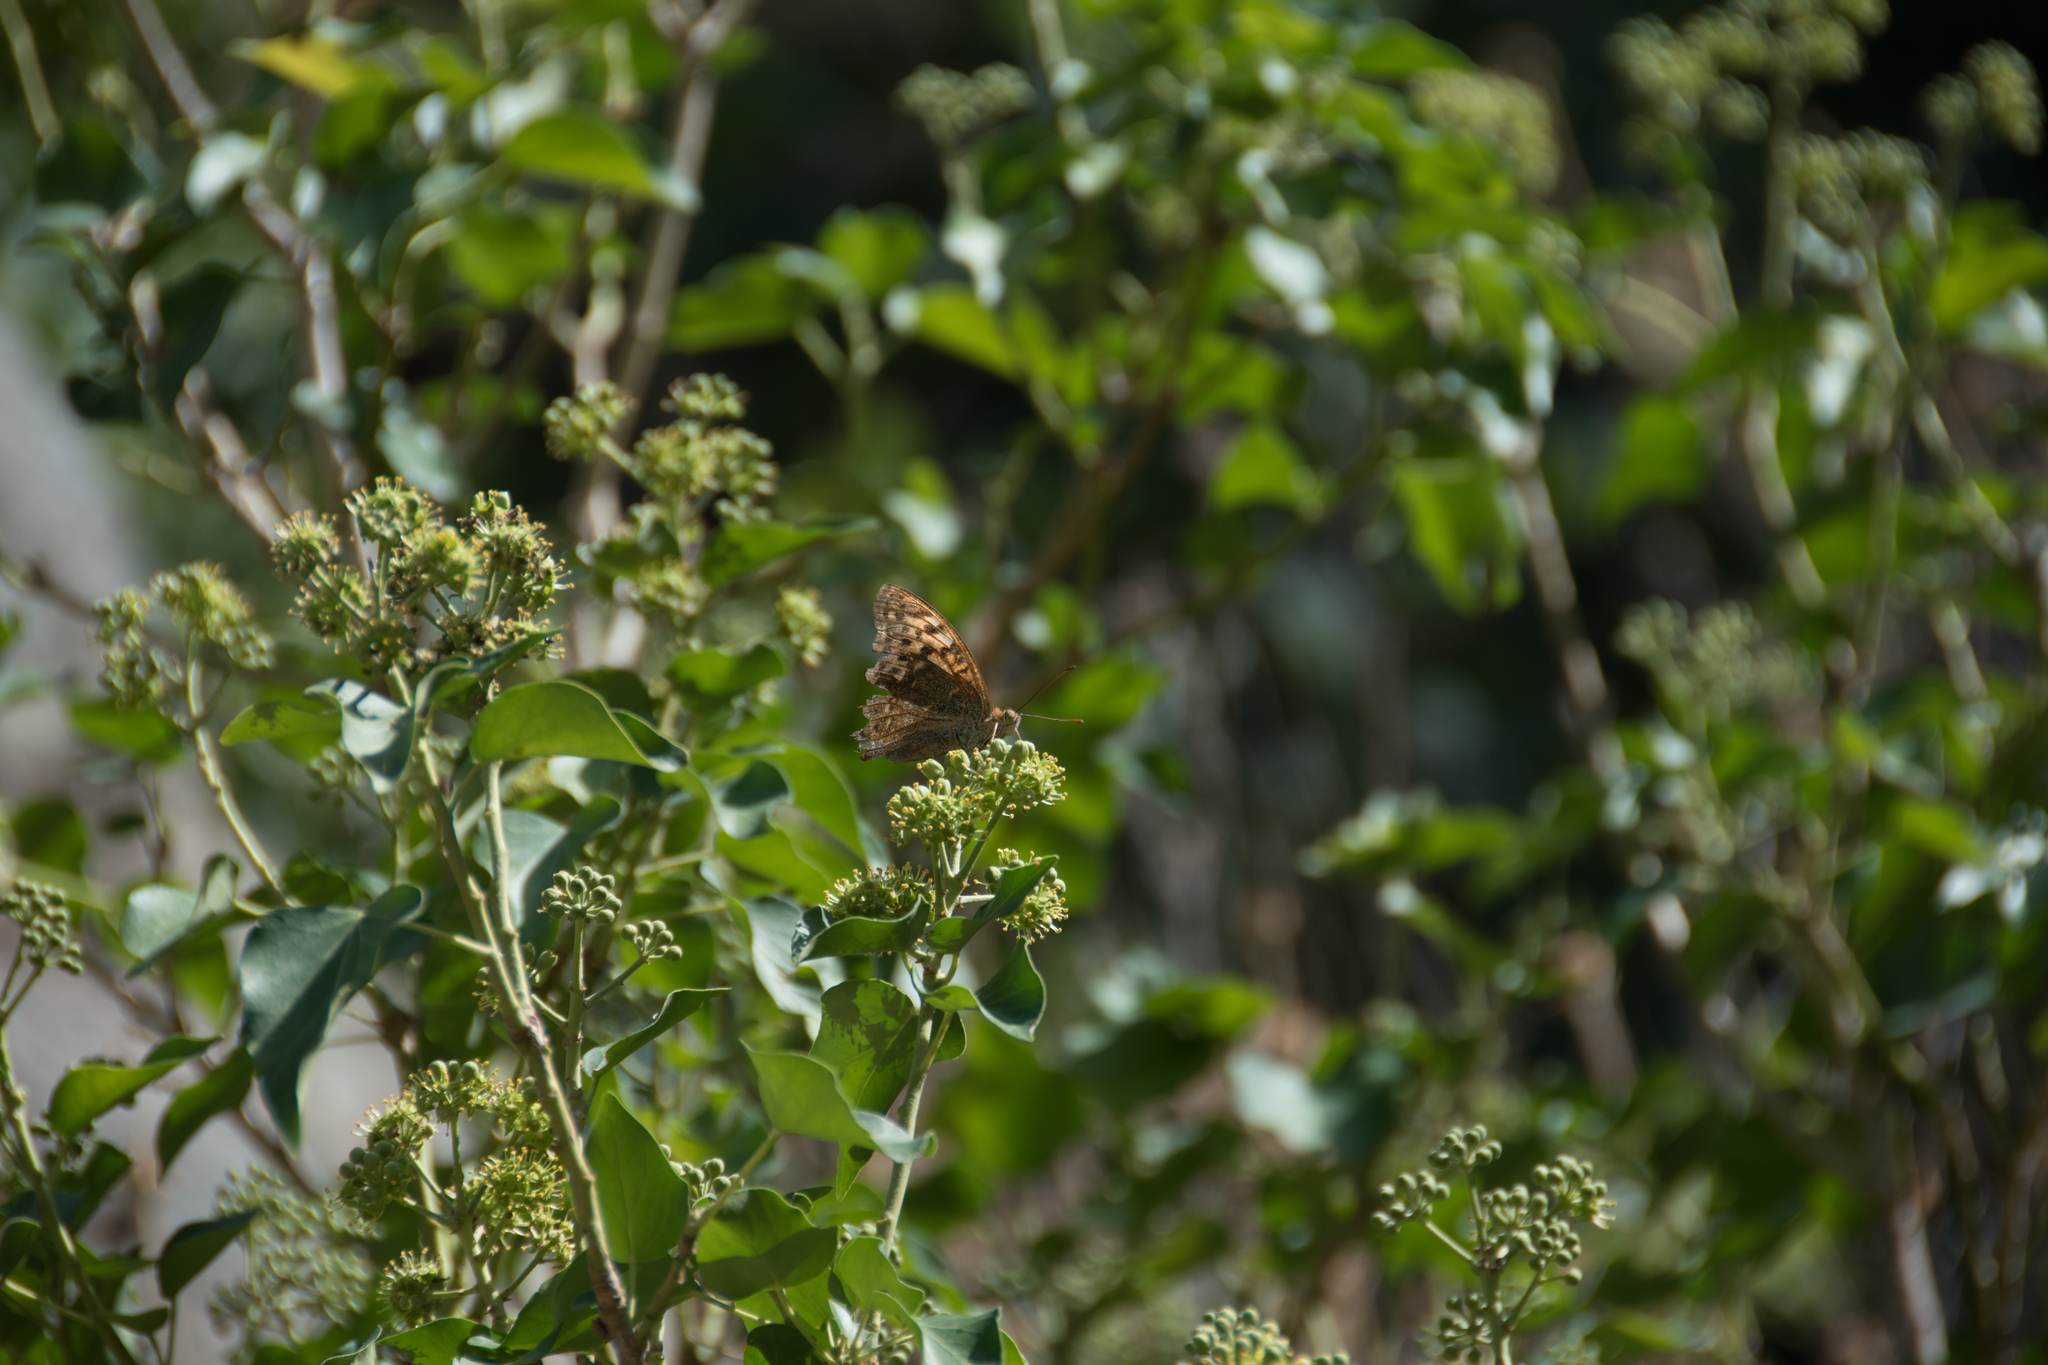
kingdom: Animalia
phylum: Arthropoda
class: Insecta
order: Lepidoptera
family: Nymphalidae
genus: Damora
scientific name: Damora pandora
